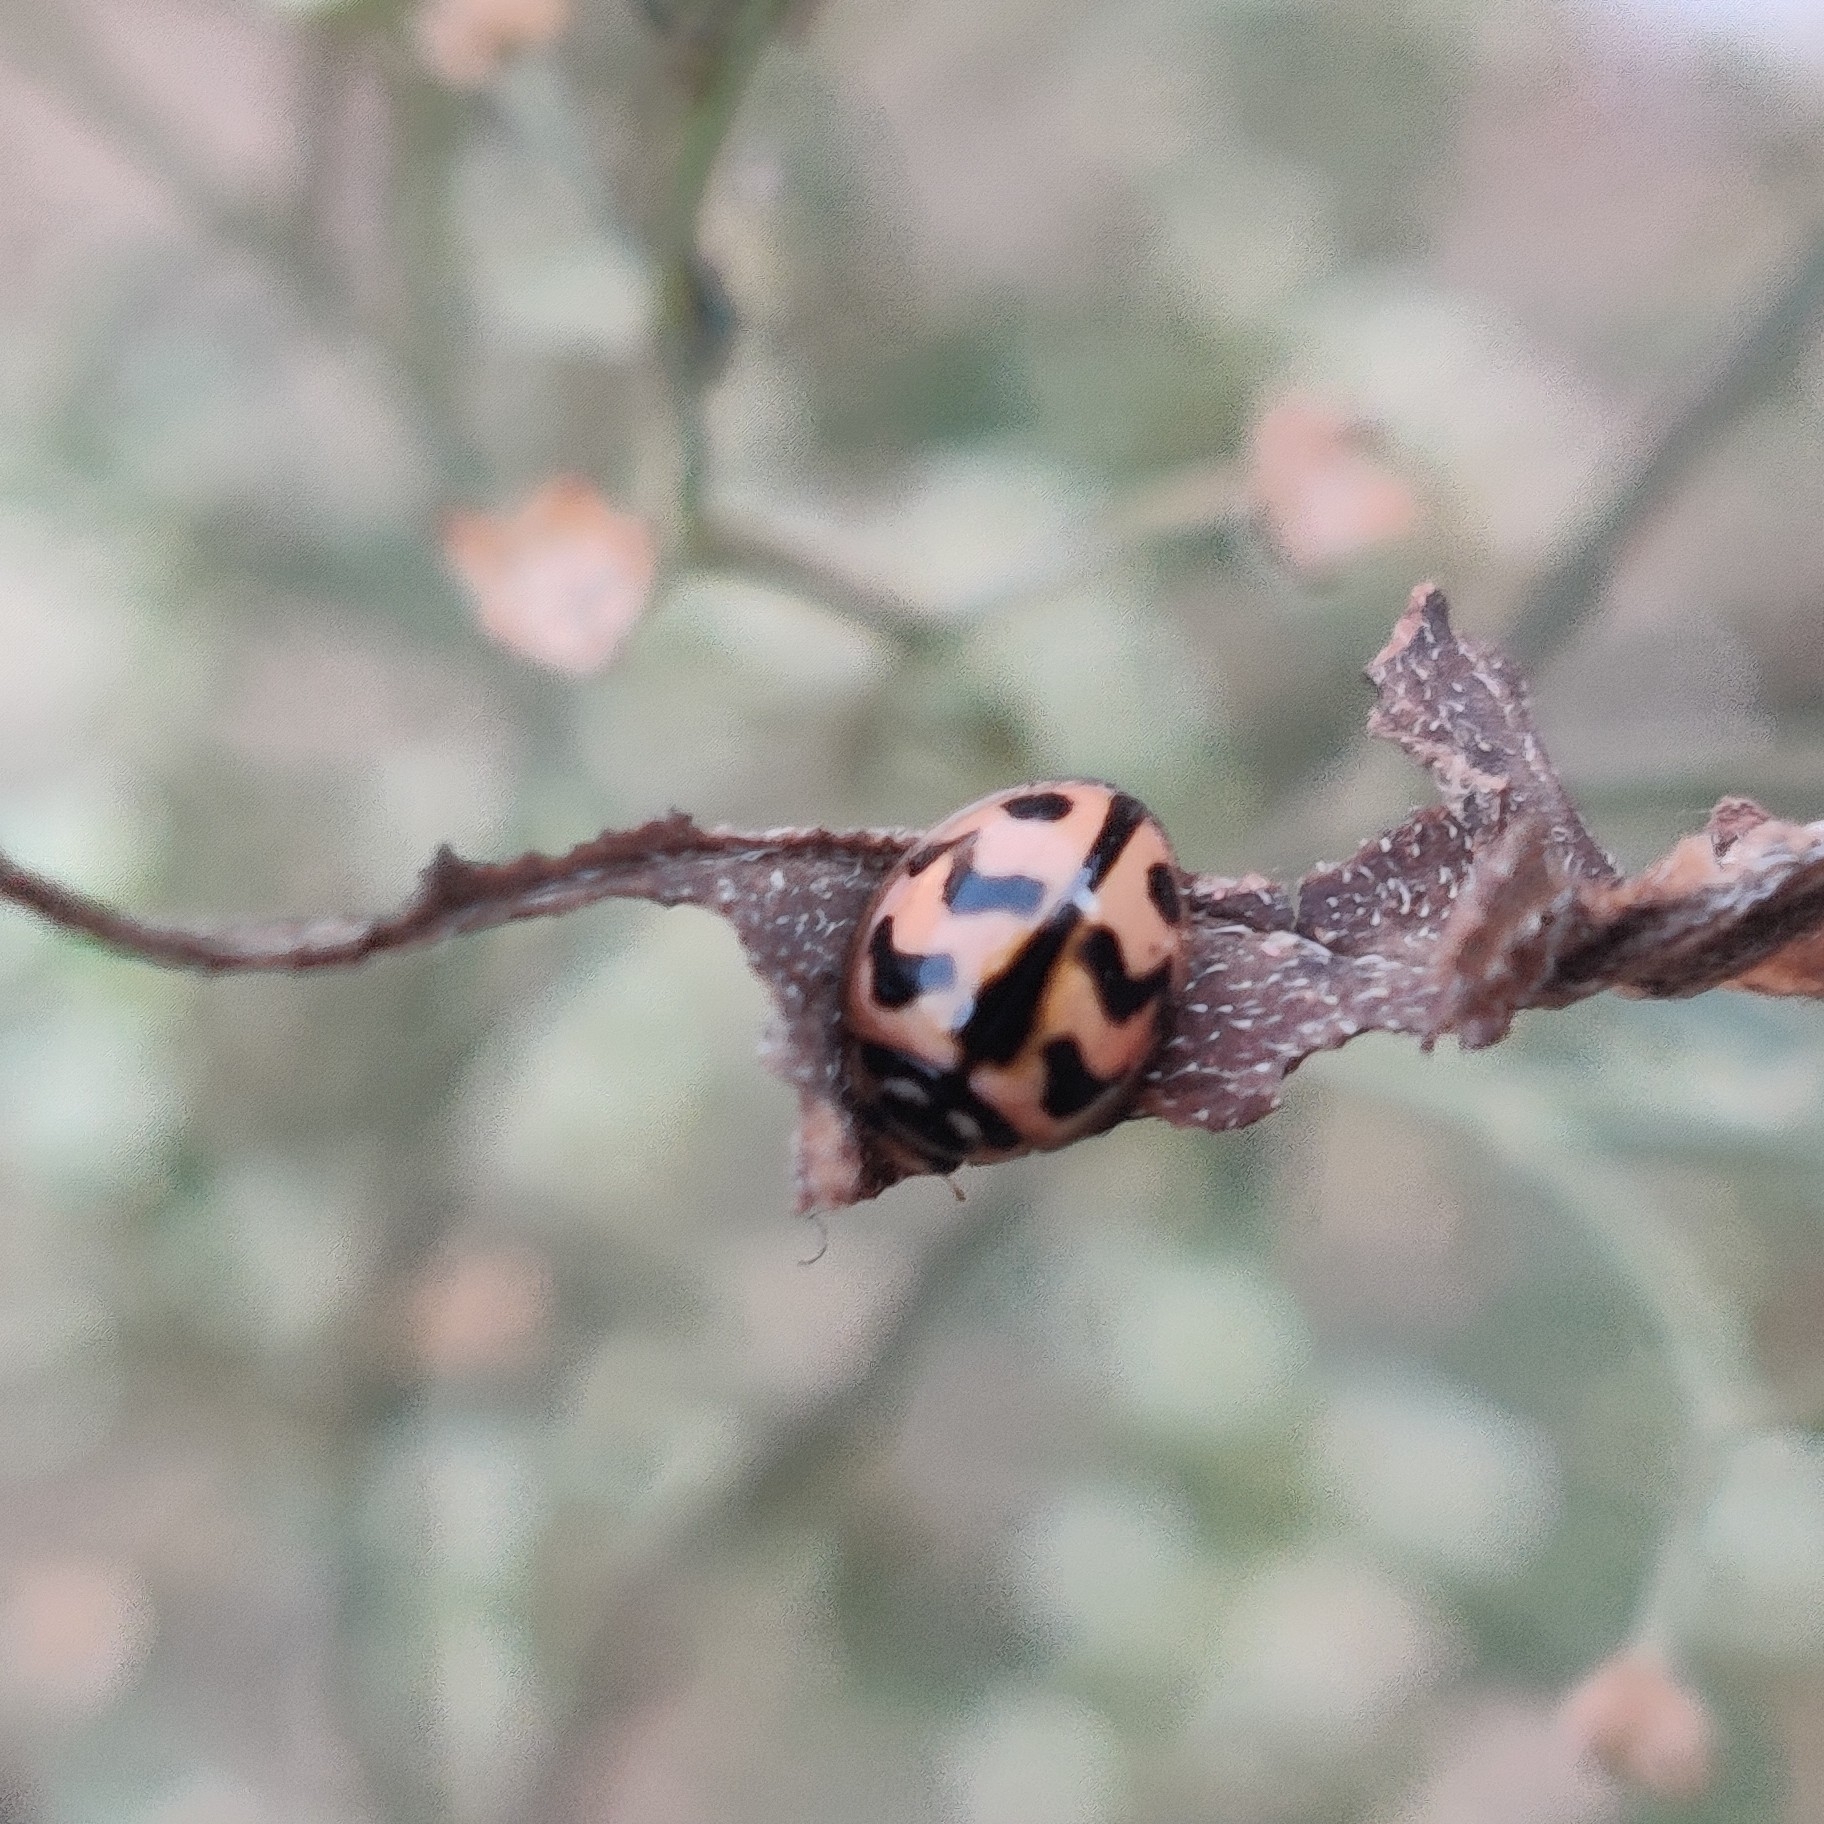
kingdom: Animalia
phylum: Arthropoda
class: Insecta
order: Coleoptera
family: Coccinellidae
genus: Cheilomenes
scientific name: Cheilomenes sexmaculata
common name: Ladybird beetle
